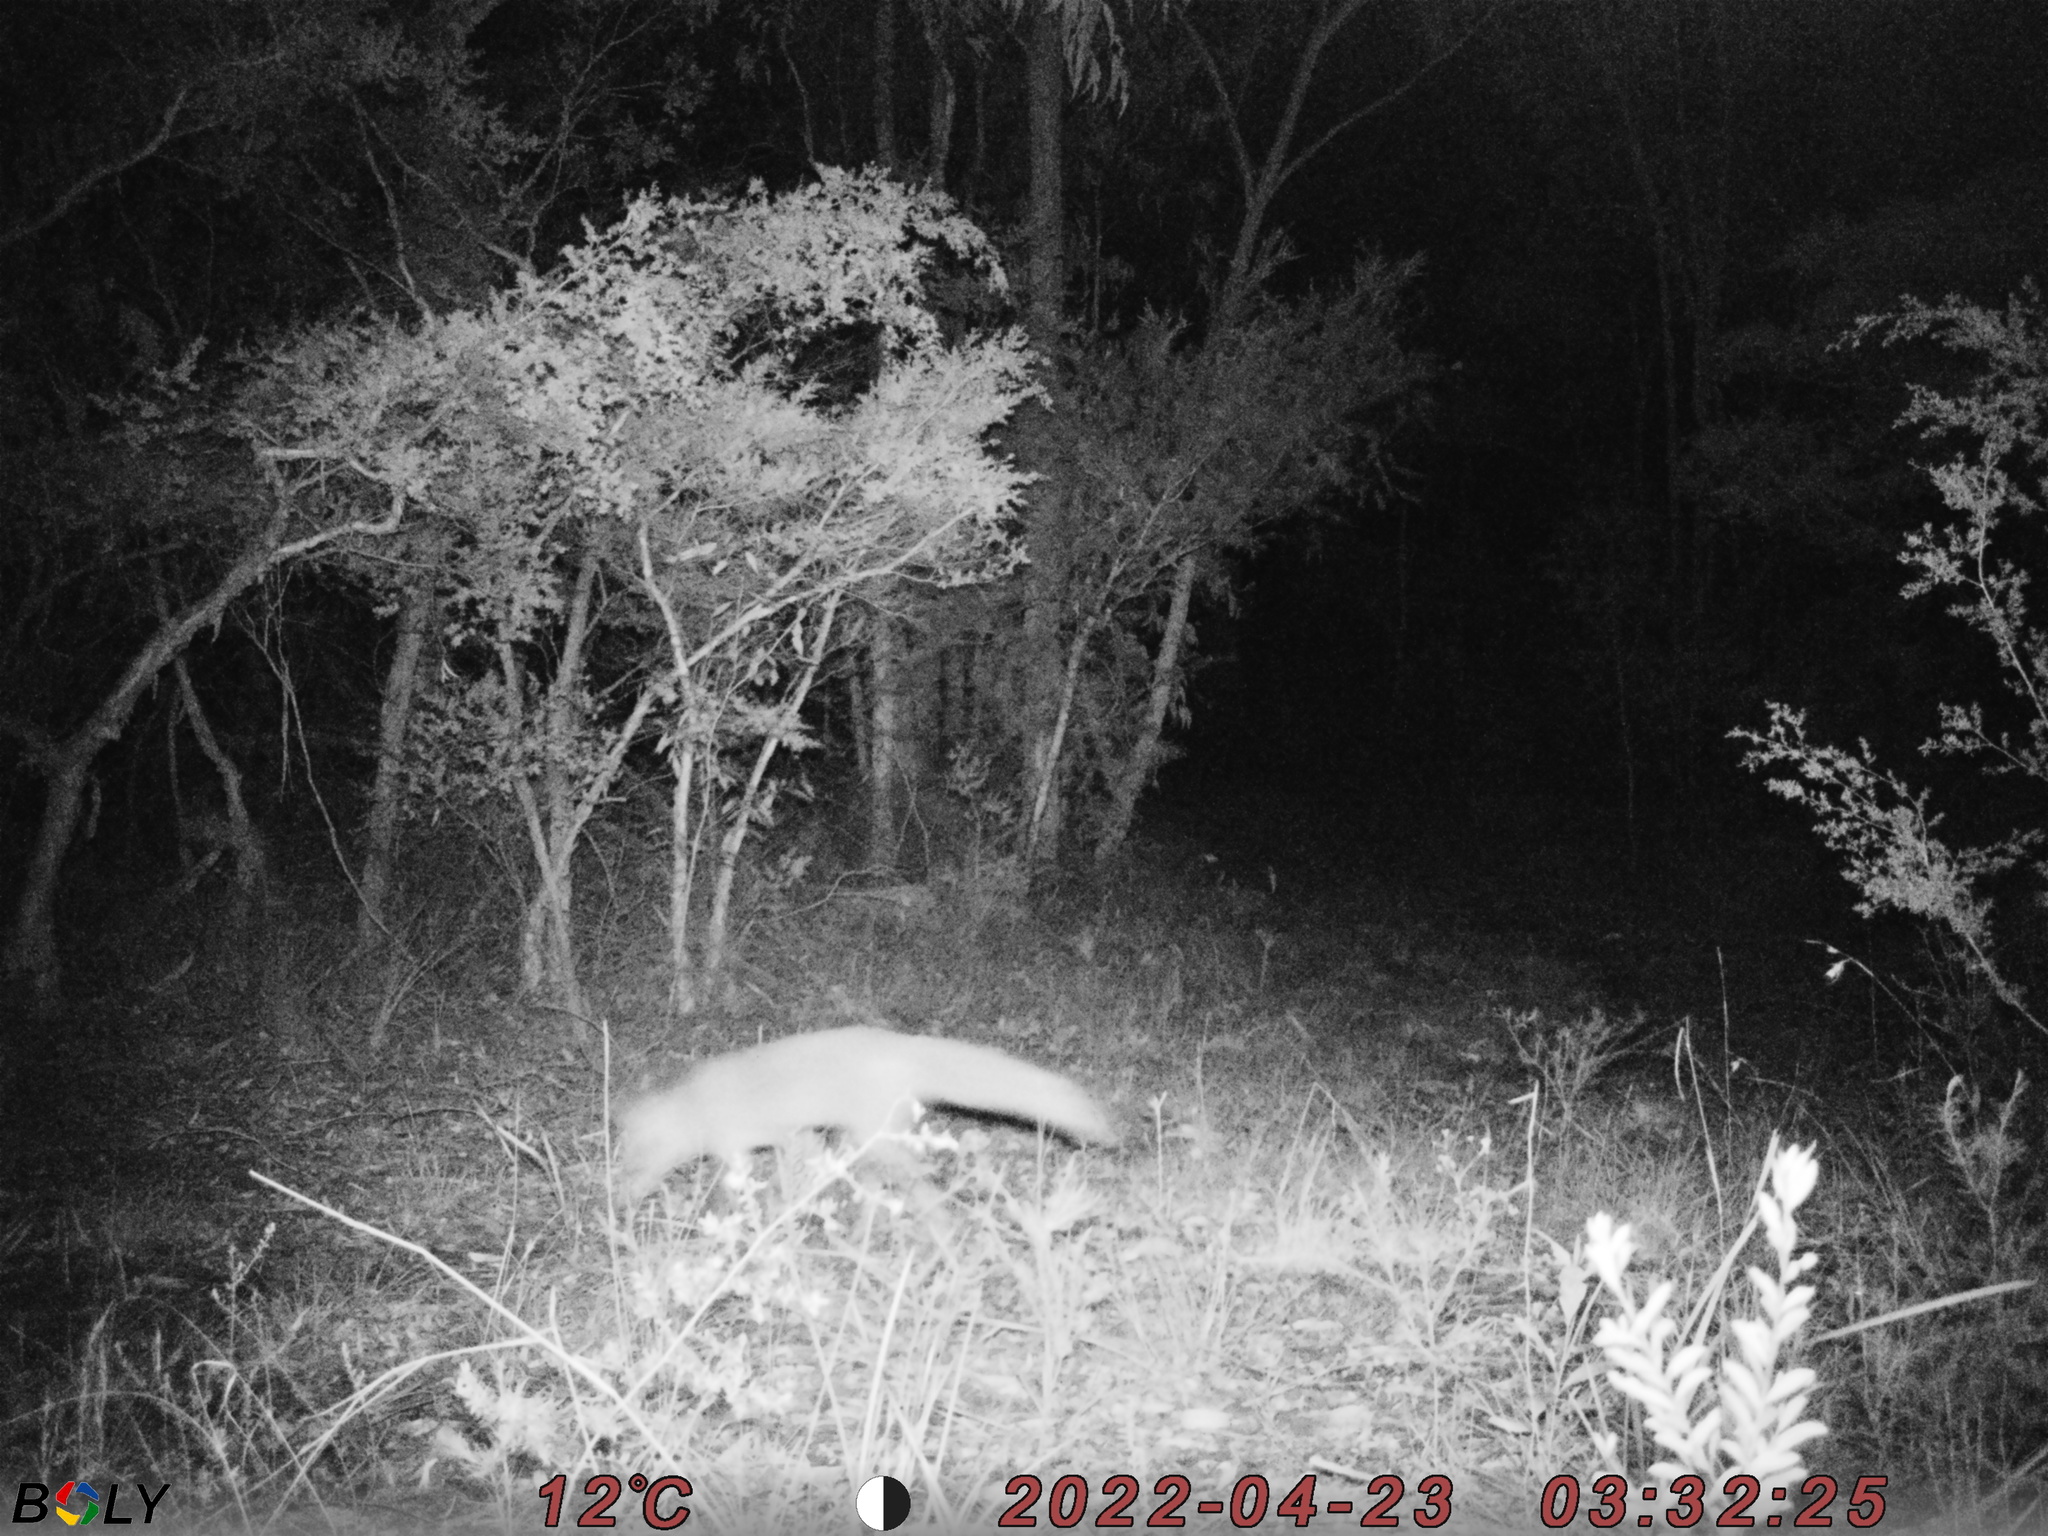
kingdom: Animalia
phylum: Chordata
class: Mammalia
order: Carnivora
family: Canidae
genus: Vulpes
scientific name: Vulpes vulpes
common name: Red fox
